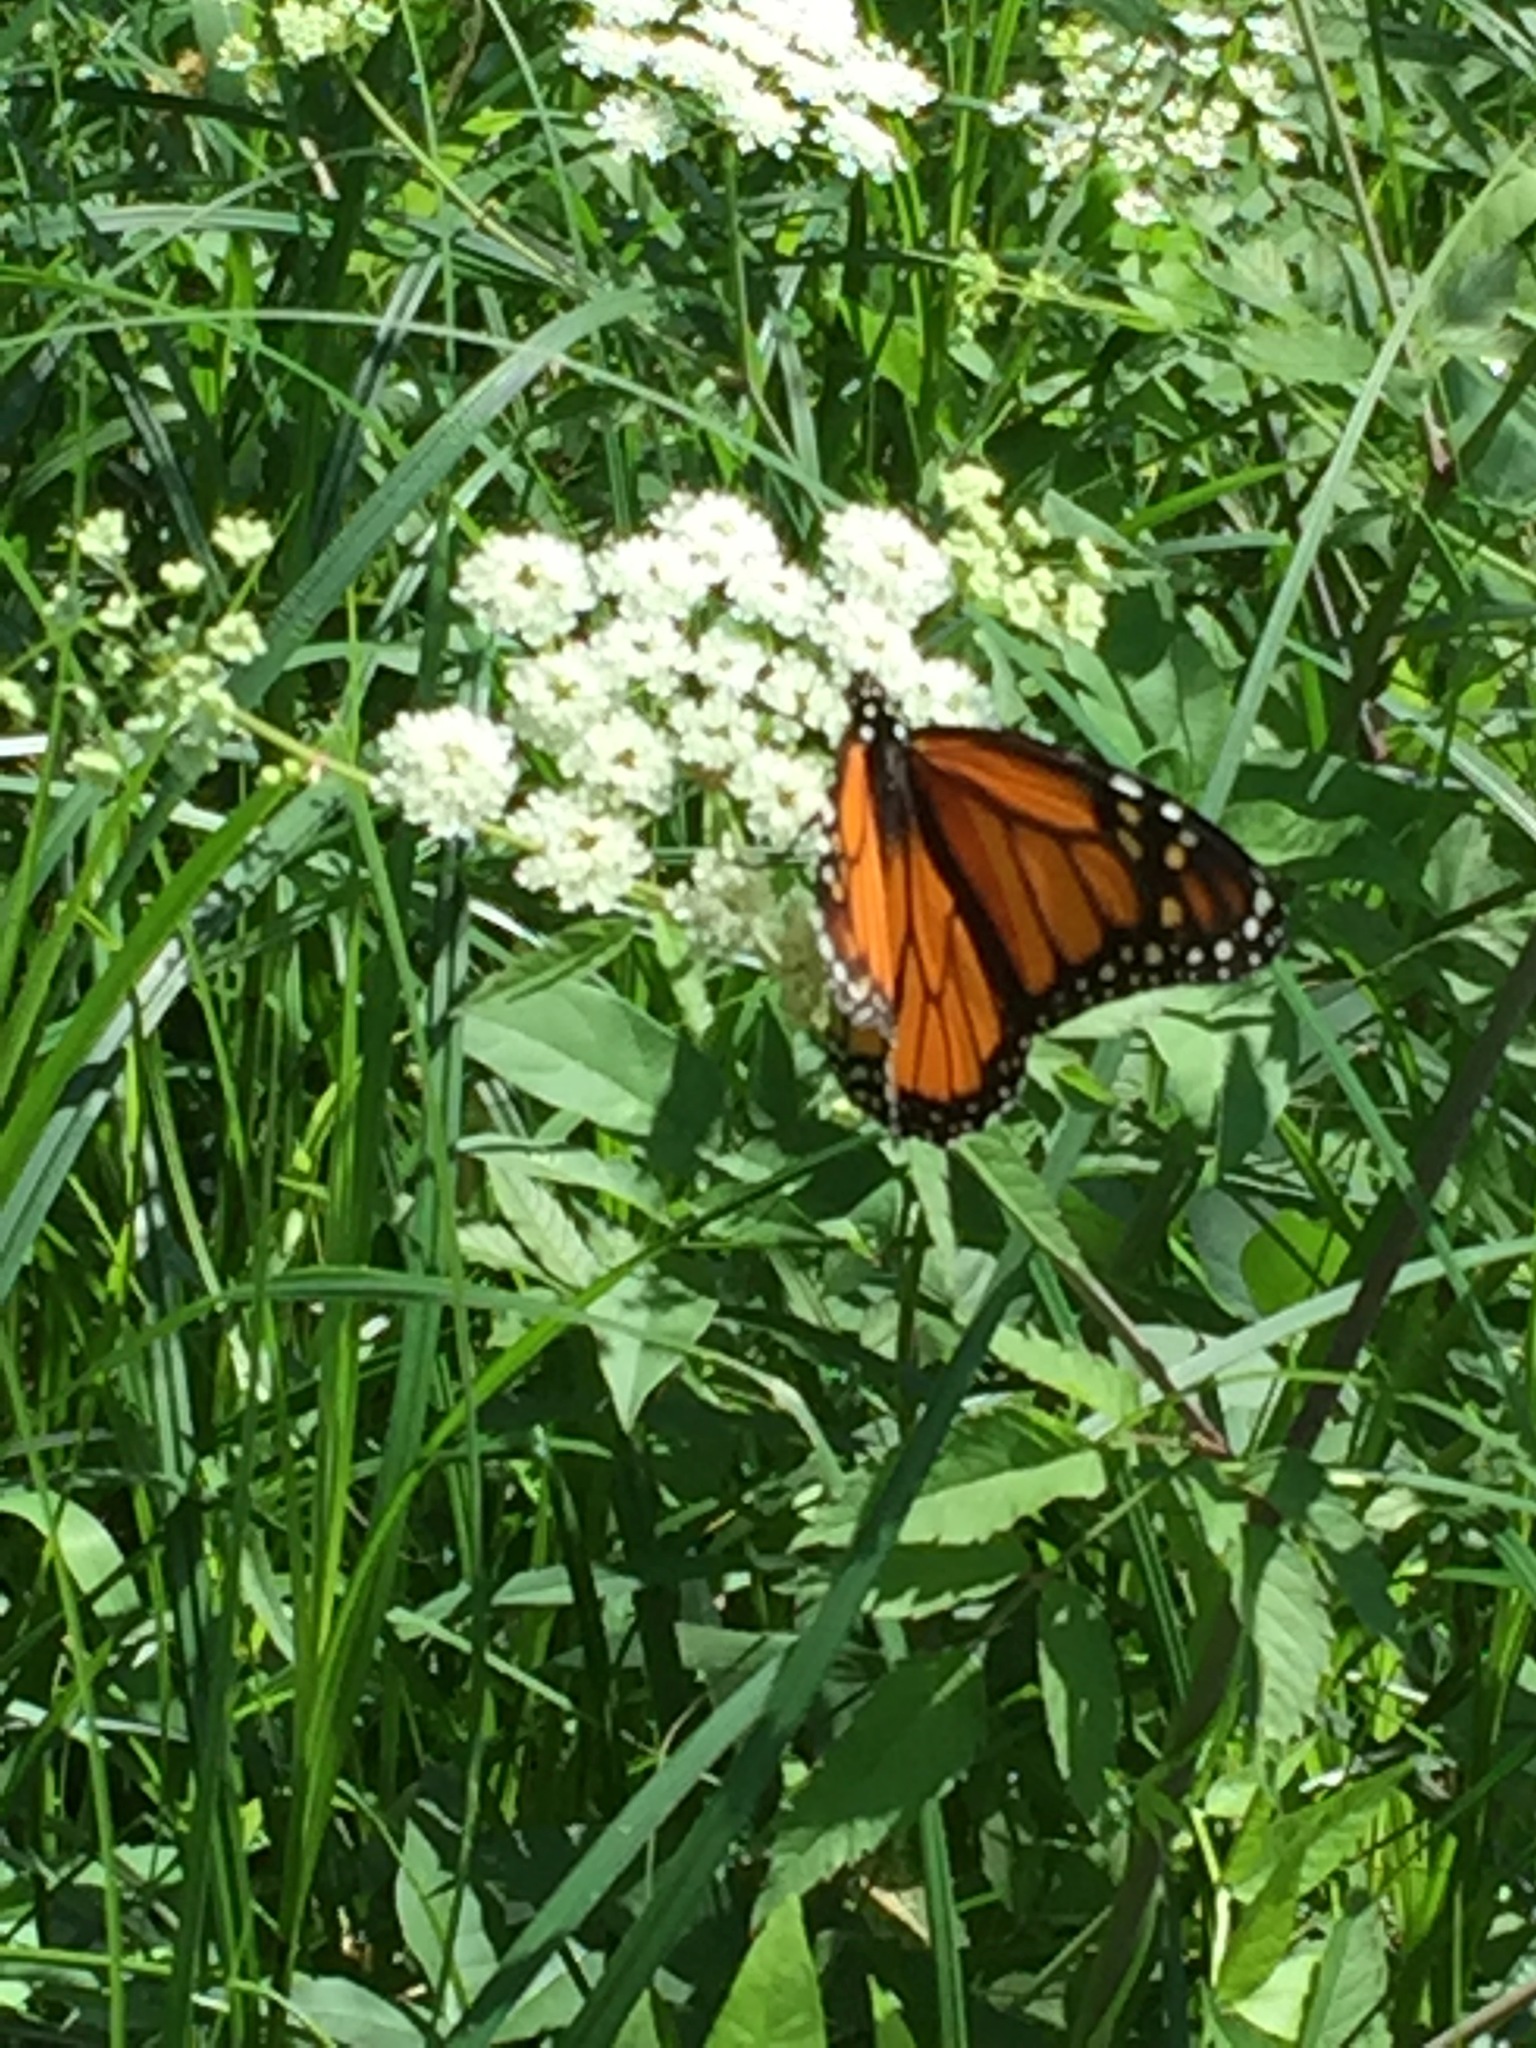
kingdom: Animalia
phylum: Arthropoda
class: Insecta
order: Lepidoptera
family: Nymphalidae
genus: Danaus
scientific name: Danaus plexippus
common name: Monarch
